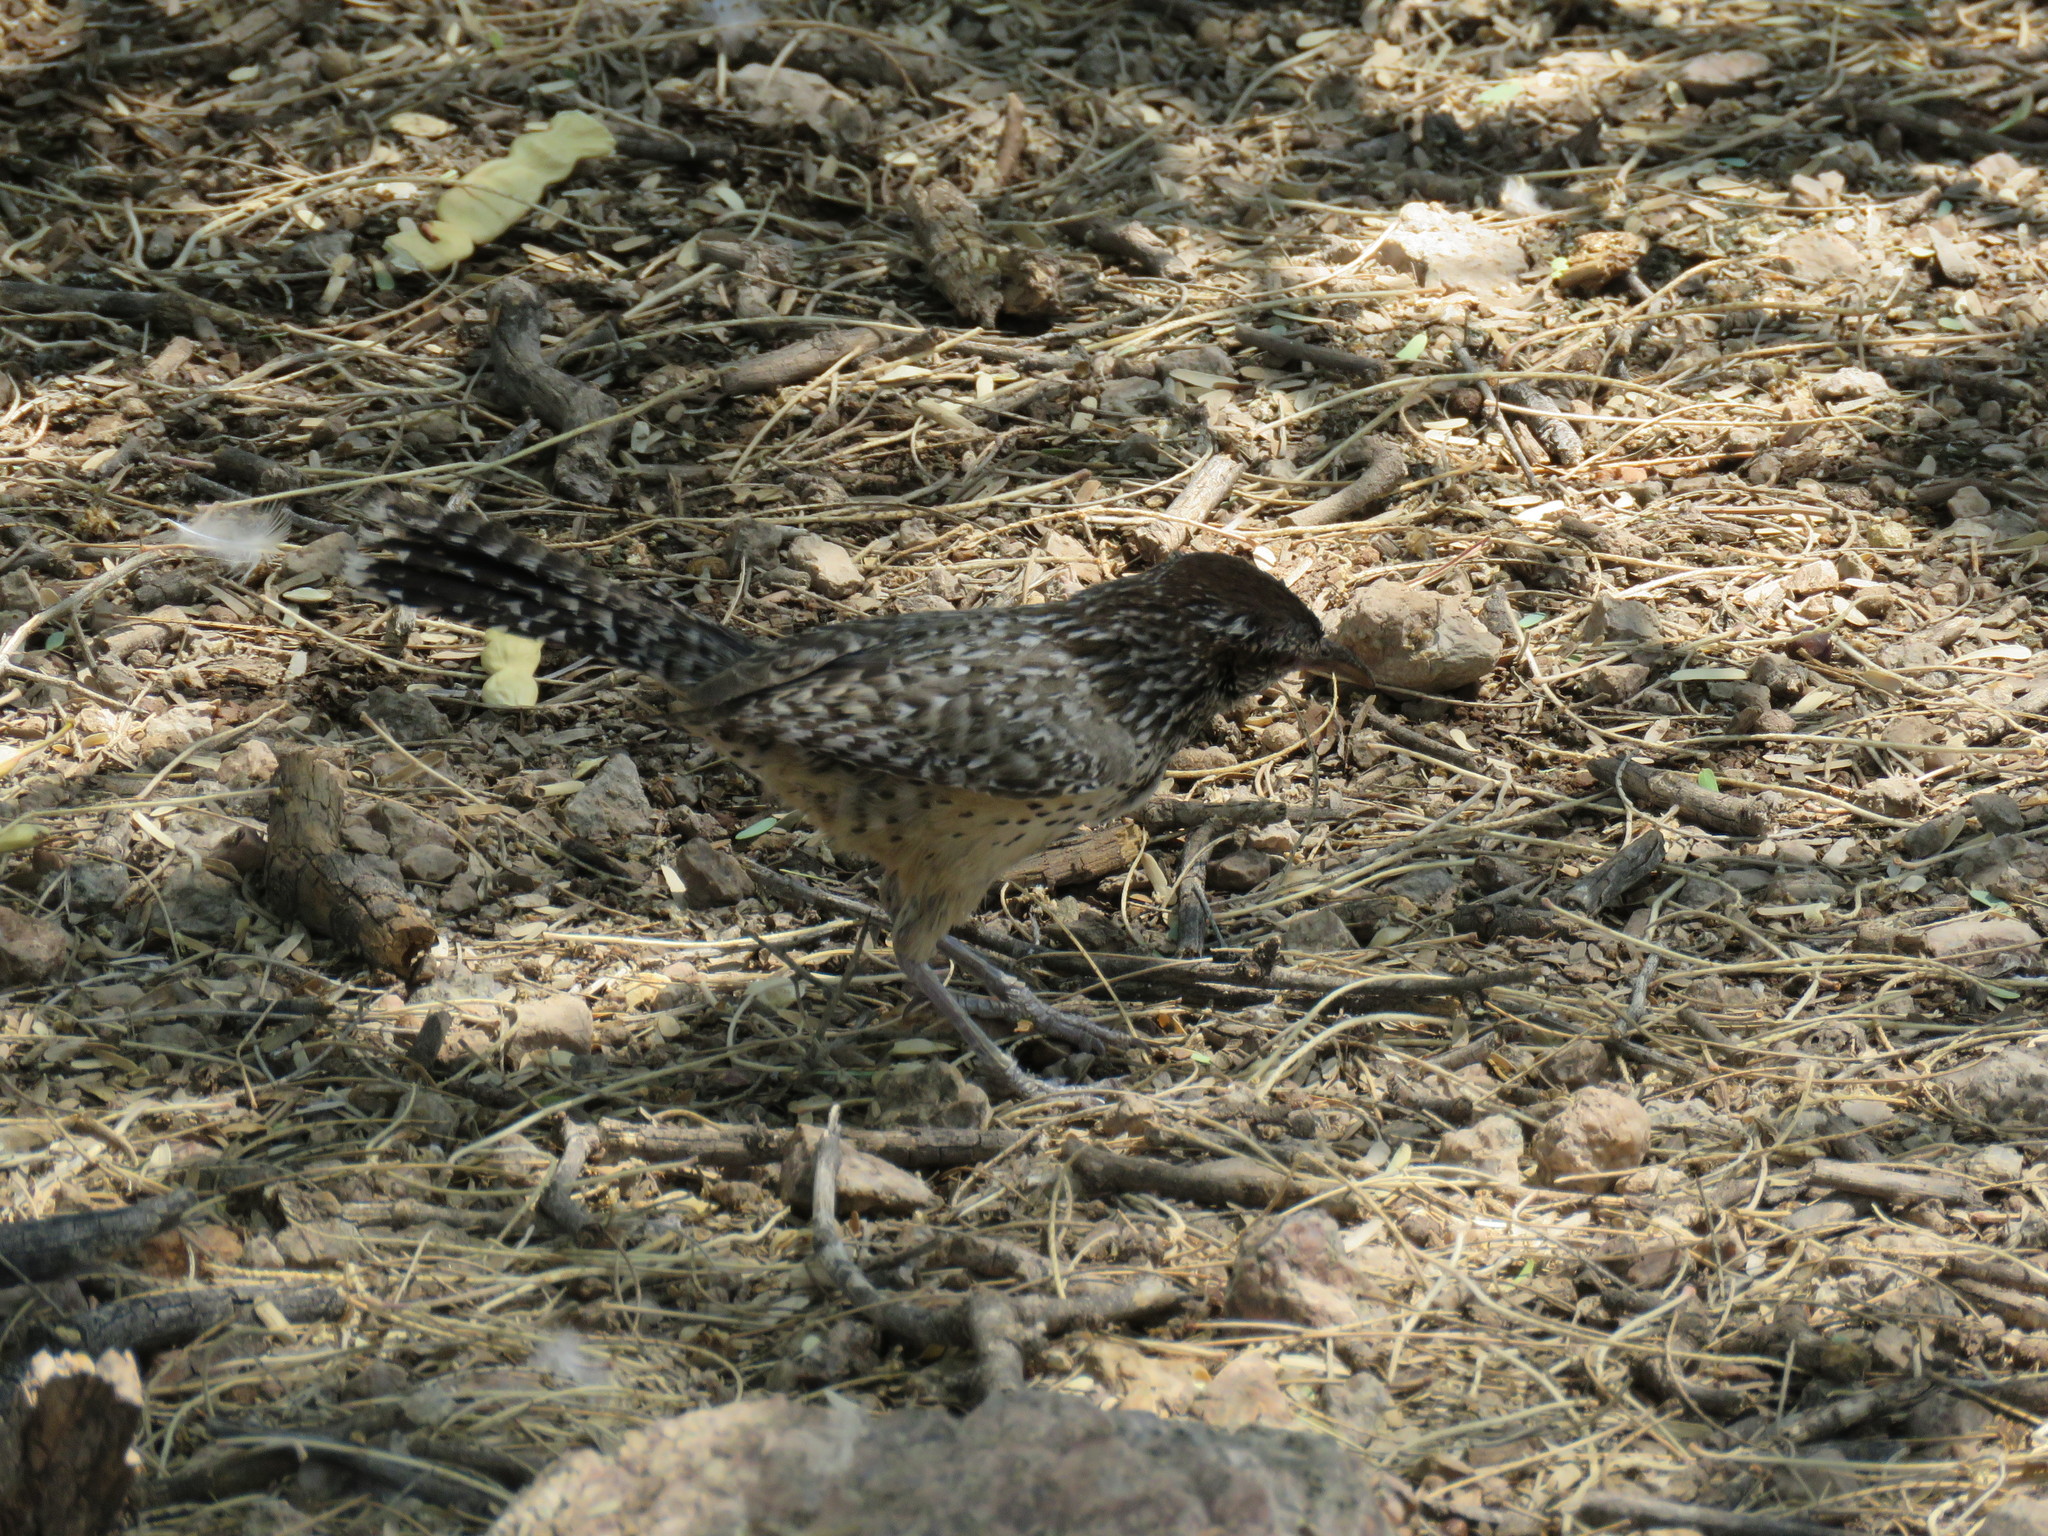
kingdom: Animalia
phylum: Chordata
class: Aves
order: Passeriformes
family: Troglodytidae
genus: Campylorhynchus
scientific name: Campylorhynchus brunneicapillus
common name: Cactus wren
